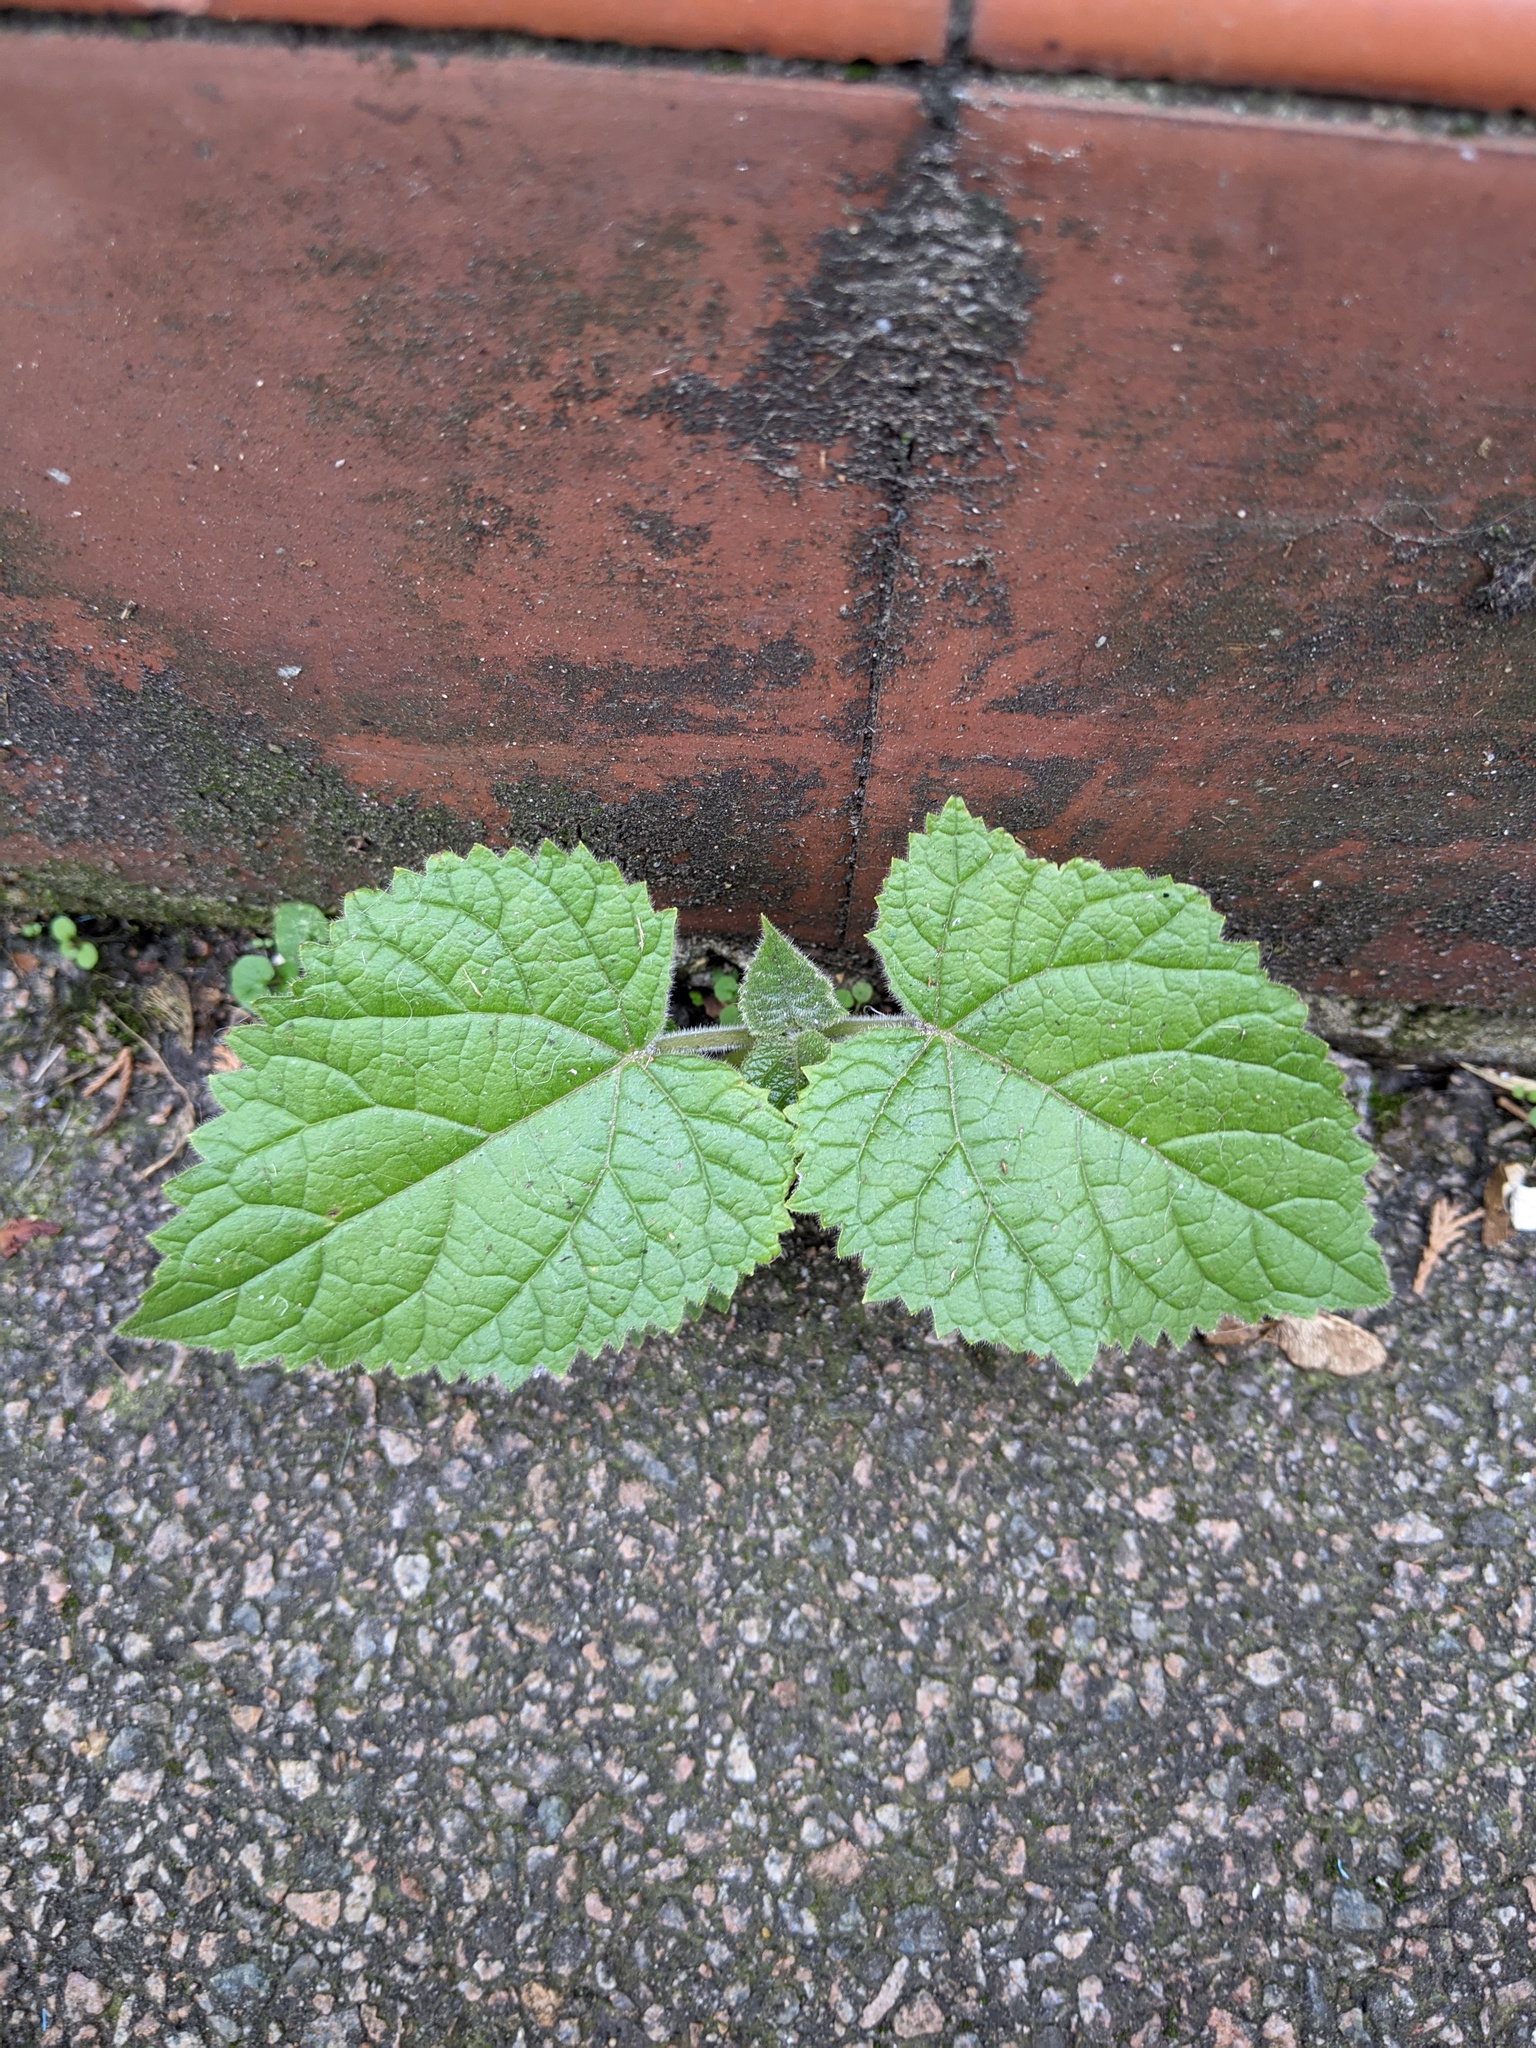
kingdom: Plantae
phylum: Tracheophyta
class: Magnoliopsida
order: Lamiales
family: Paulowniaceae
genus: Paulownia
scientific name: Paulownia tomentosa
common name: Foxglove-tree
